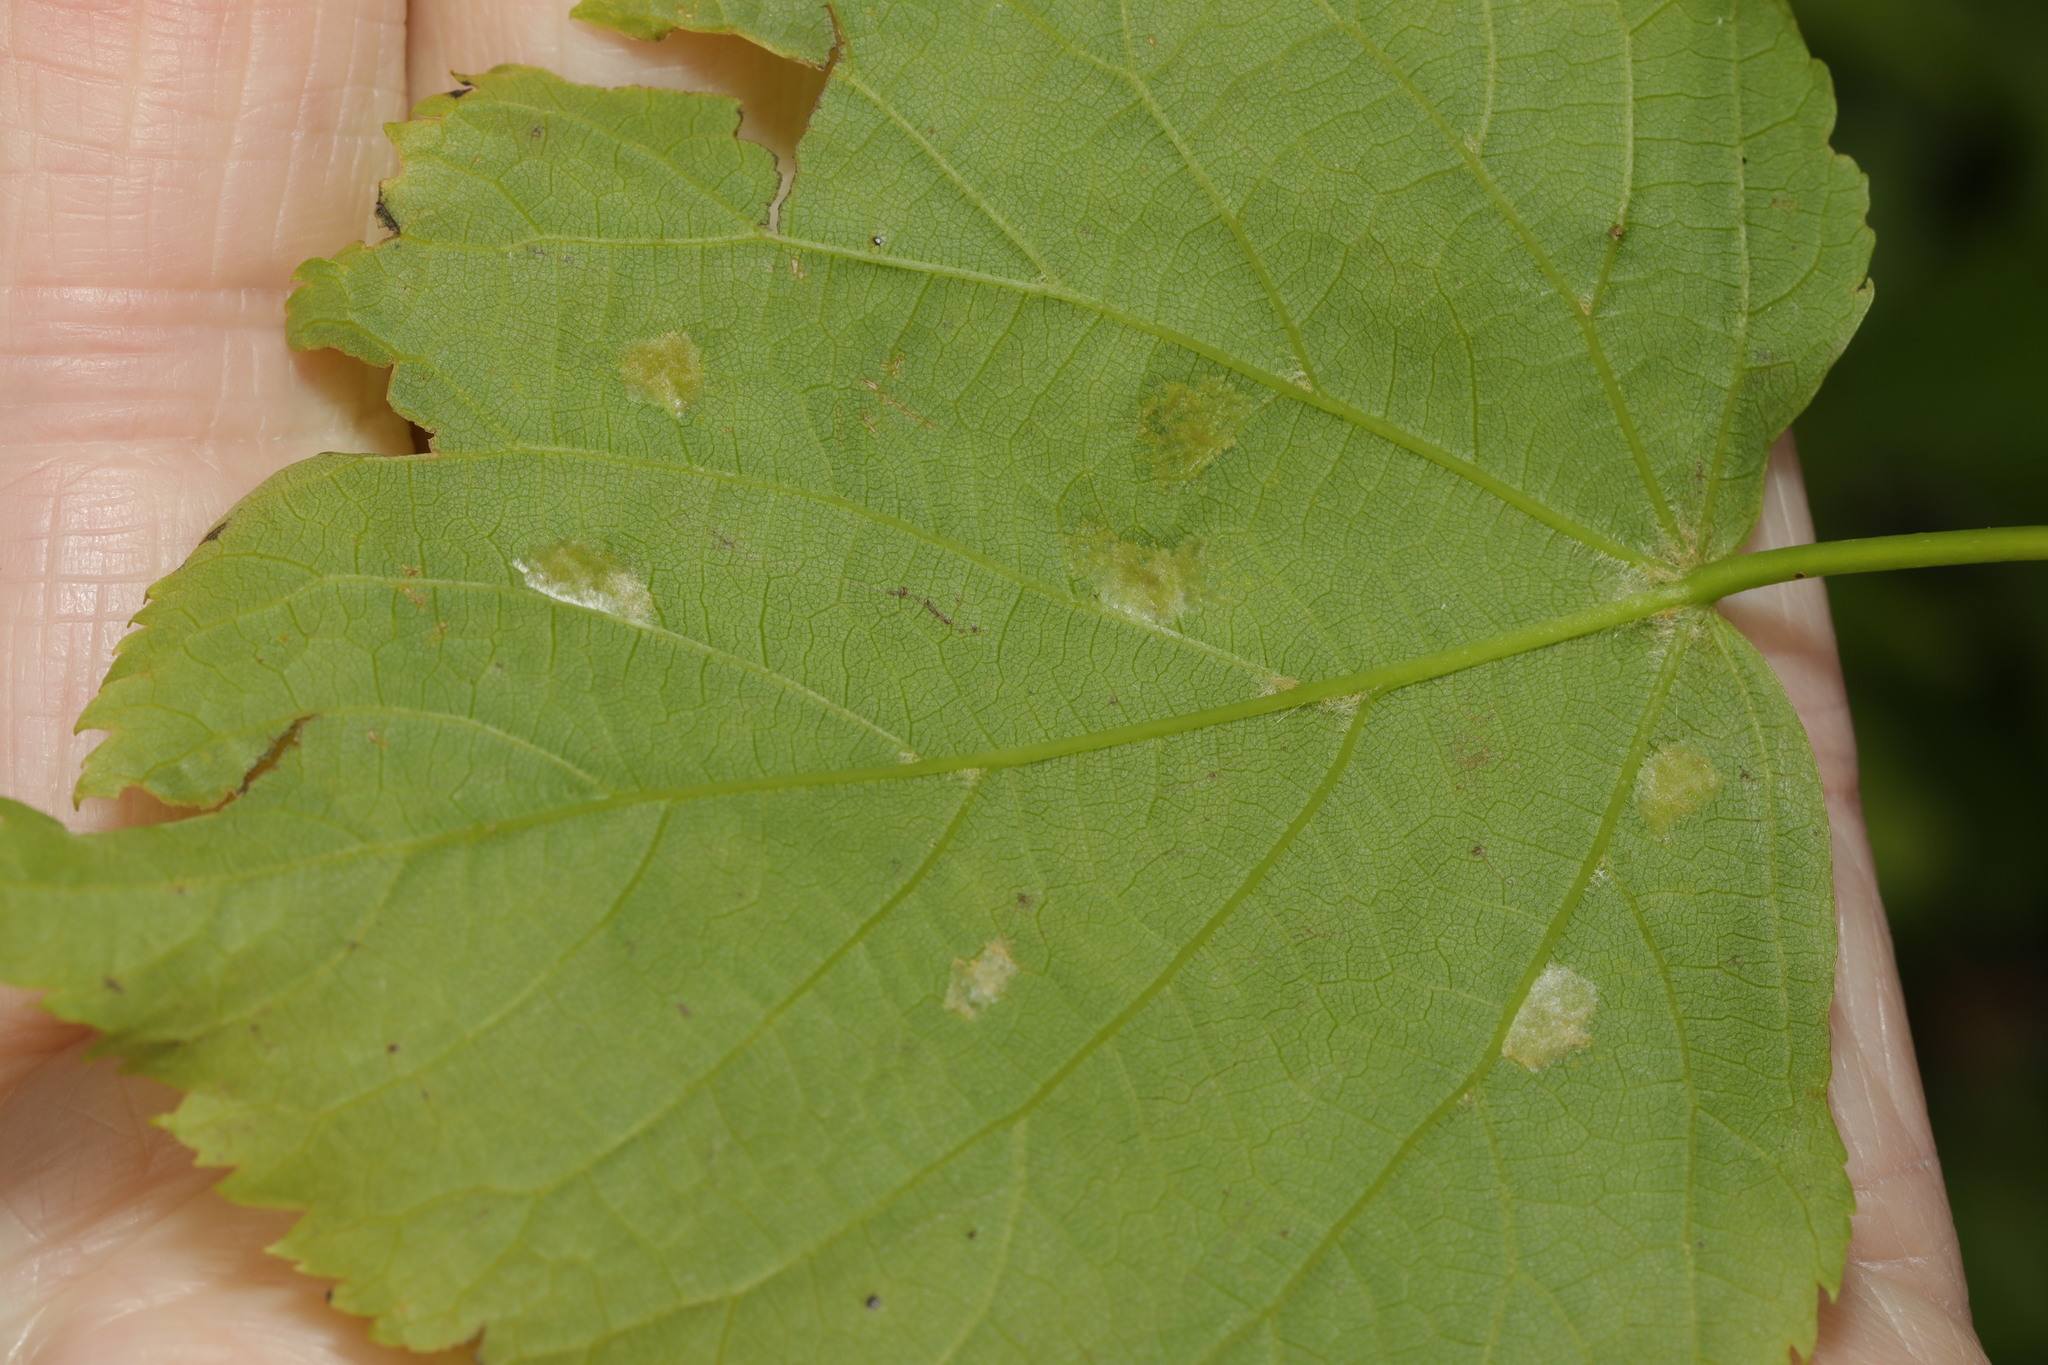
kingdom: Animalia
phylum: Arthropoda
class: Arachnida
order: Trombidiformes
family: Eriophyidae
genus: Eriophyes
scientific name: Eriophyes leiosoma
